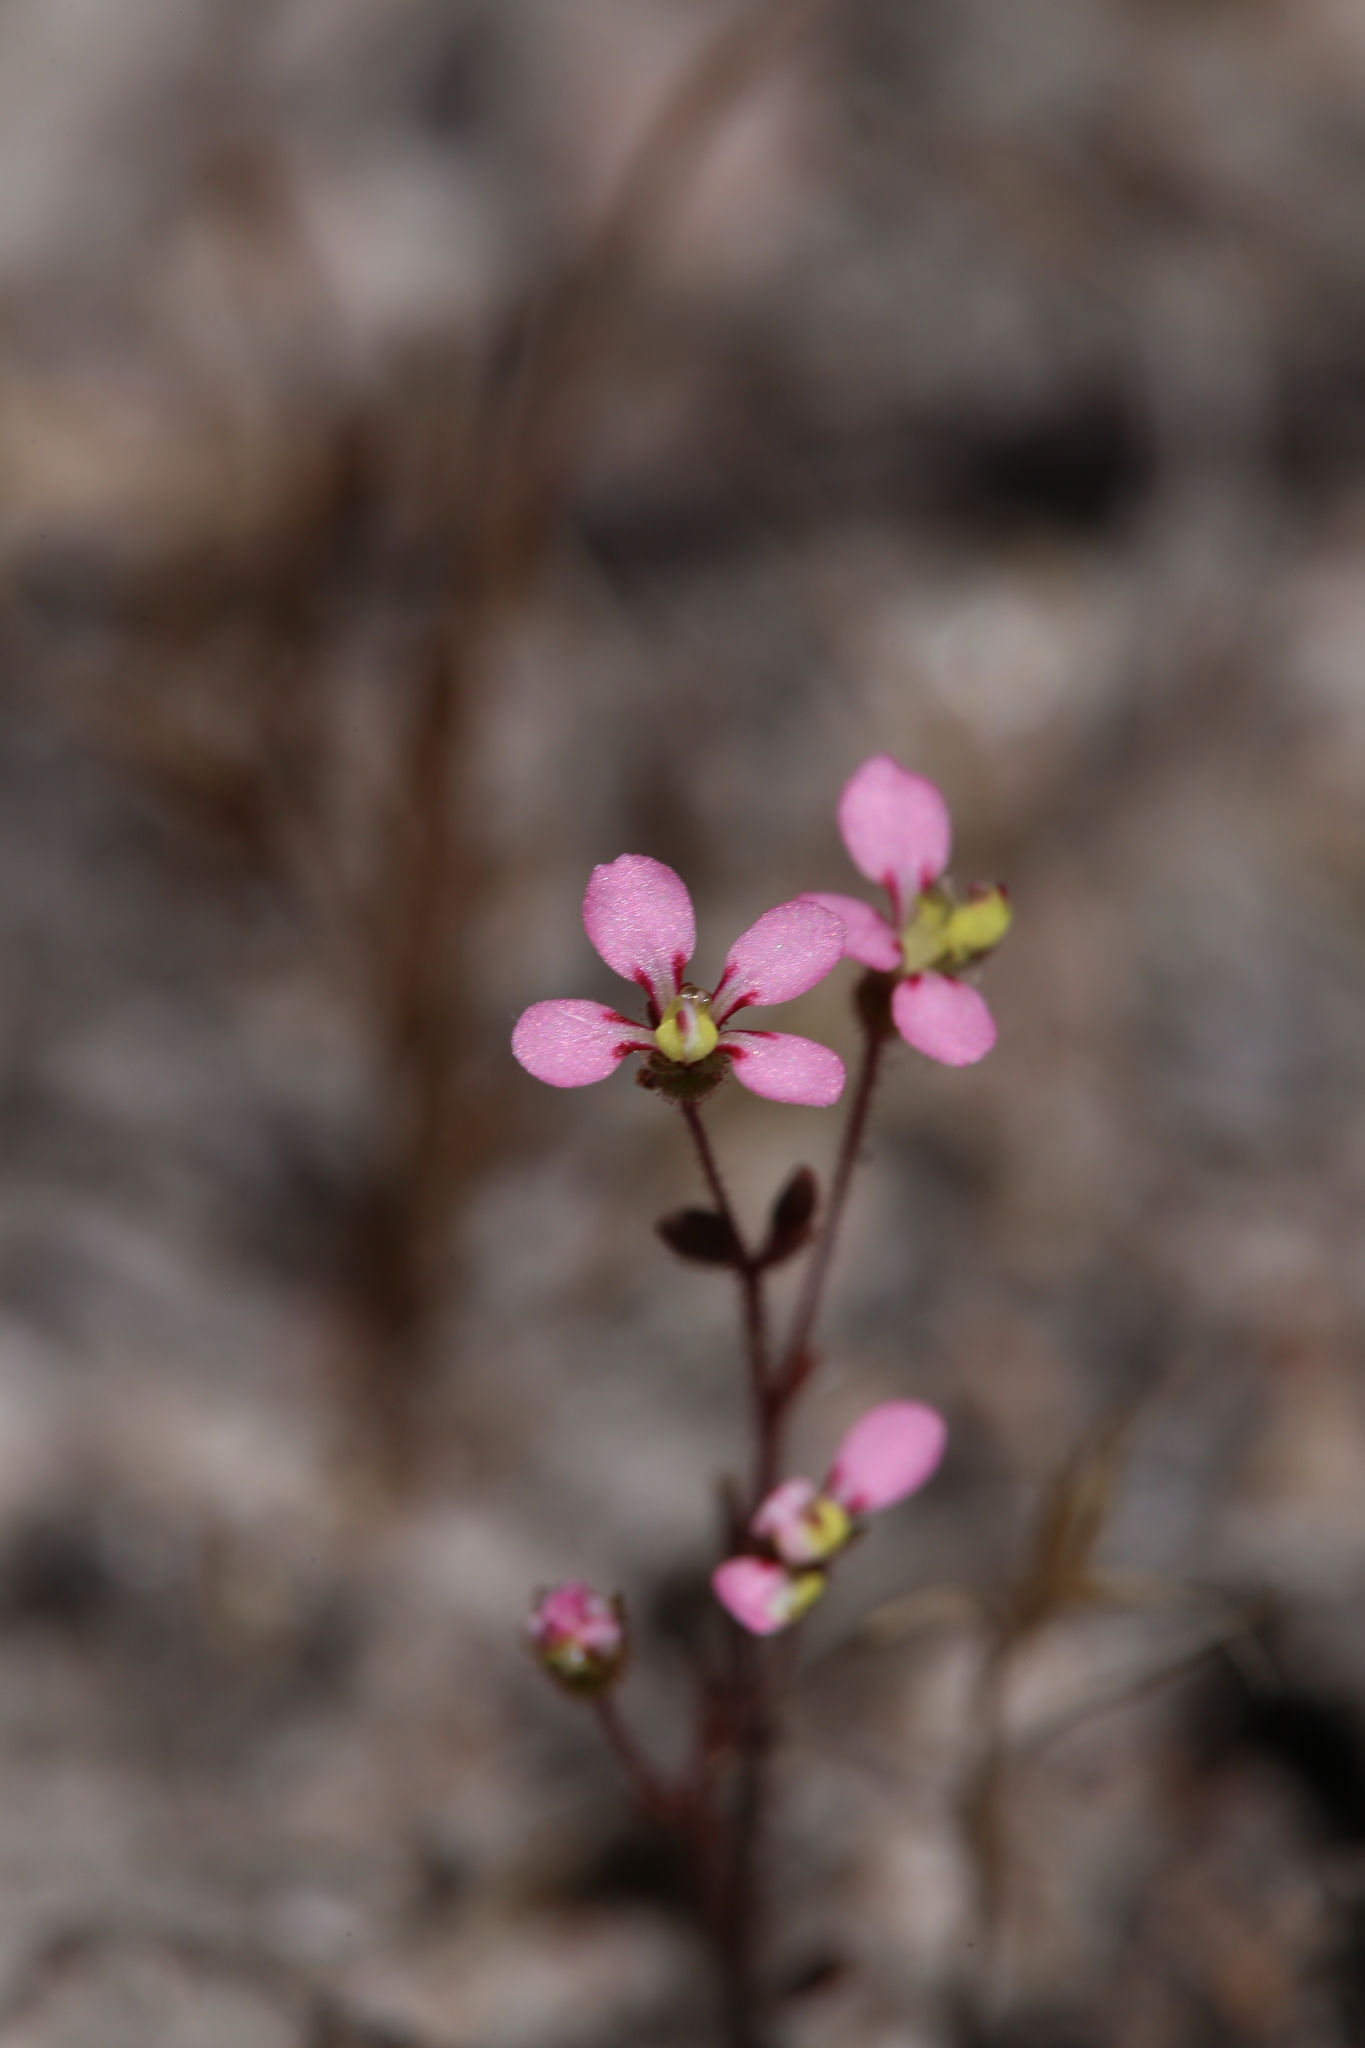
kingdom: Plantae
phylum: Tracheophyta
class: Magnoliopsida
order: Asterales
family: Stylidiaceae
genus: Levenhookia
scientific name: Levenhookia stipitata
